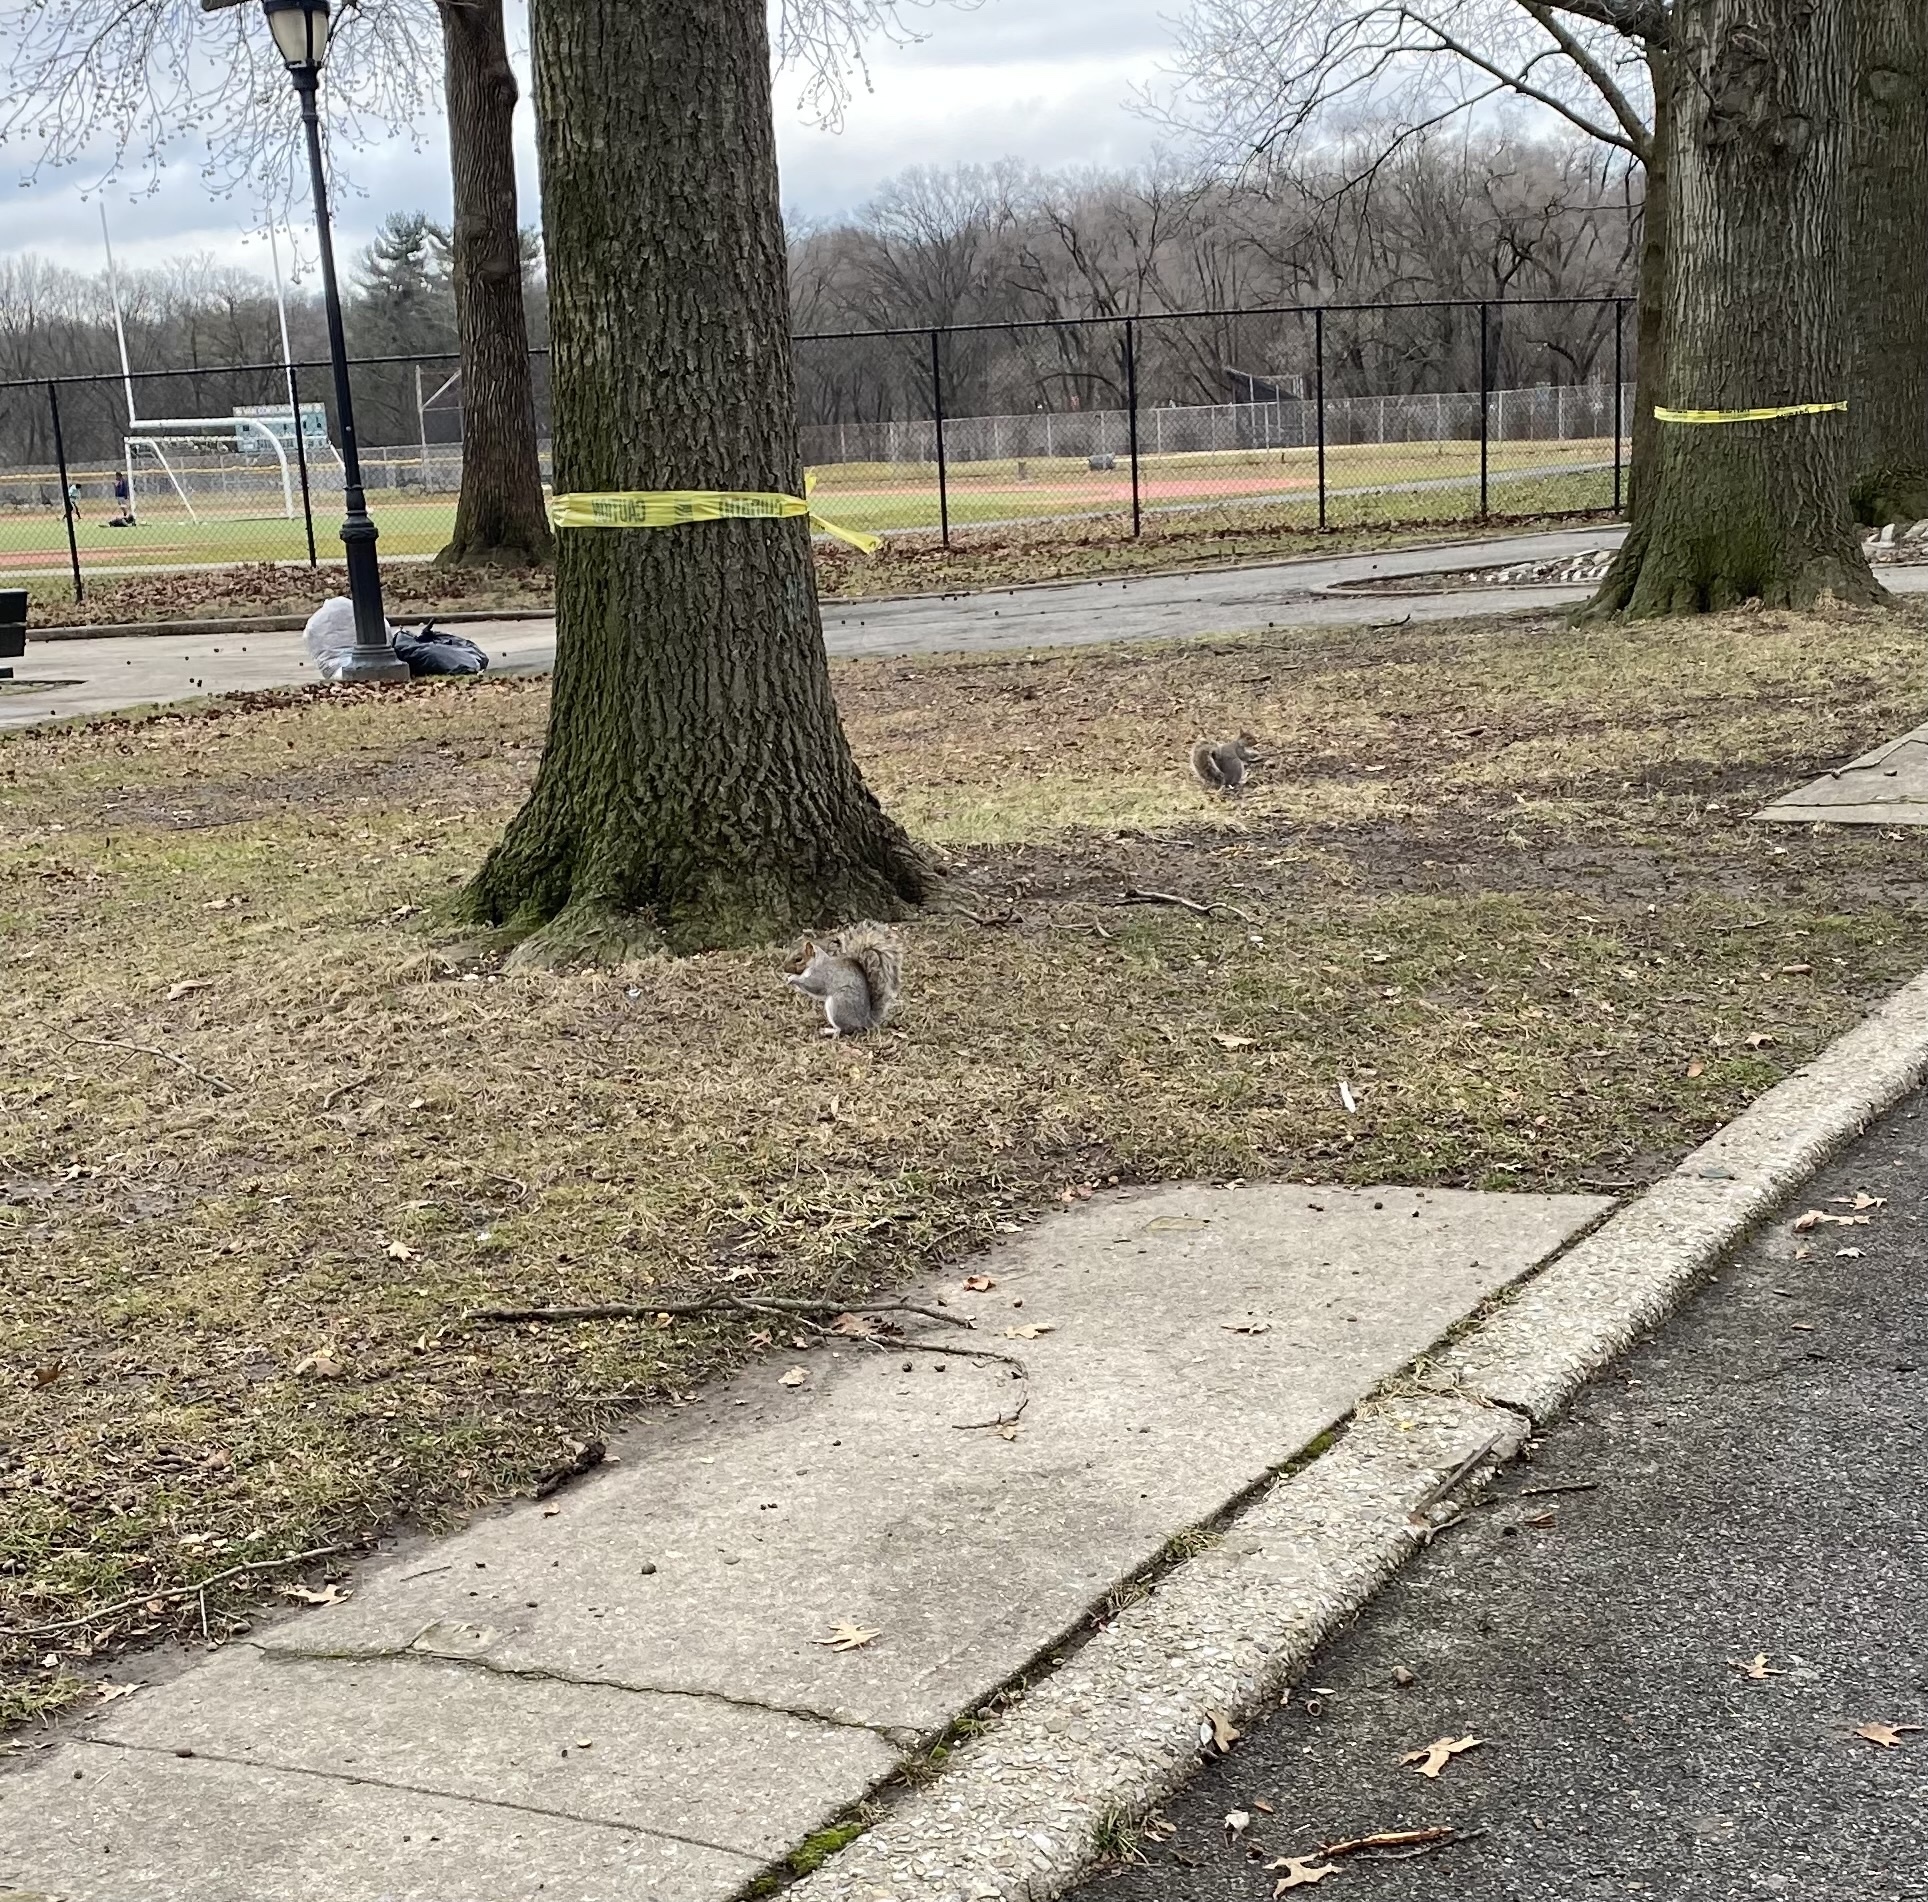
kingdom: Animalia
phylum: Chordata
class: Mammalia
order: Rodentia
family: Sciuridae
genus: Sciurus
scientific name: Sciurus carolinensis
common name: Eastern gray squirrel
